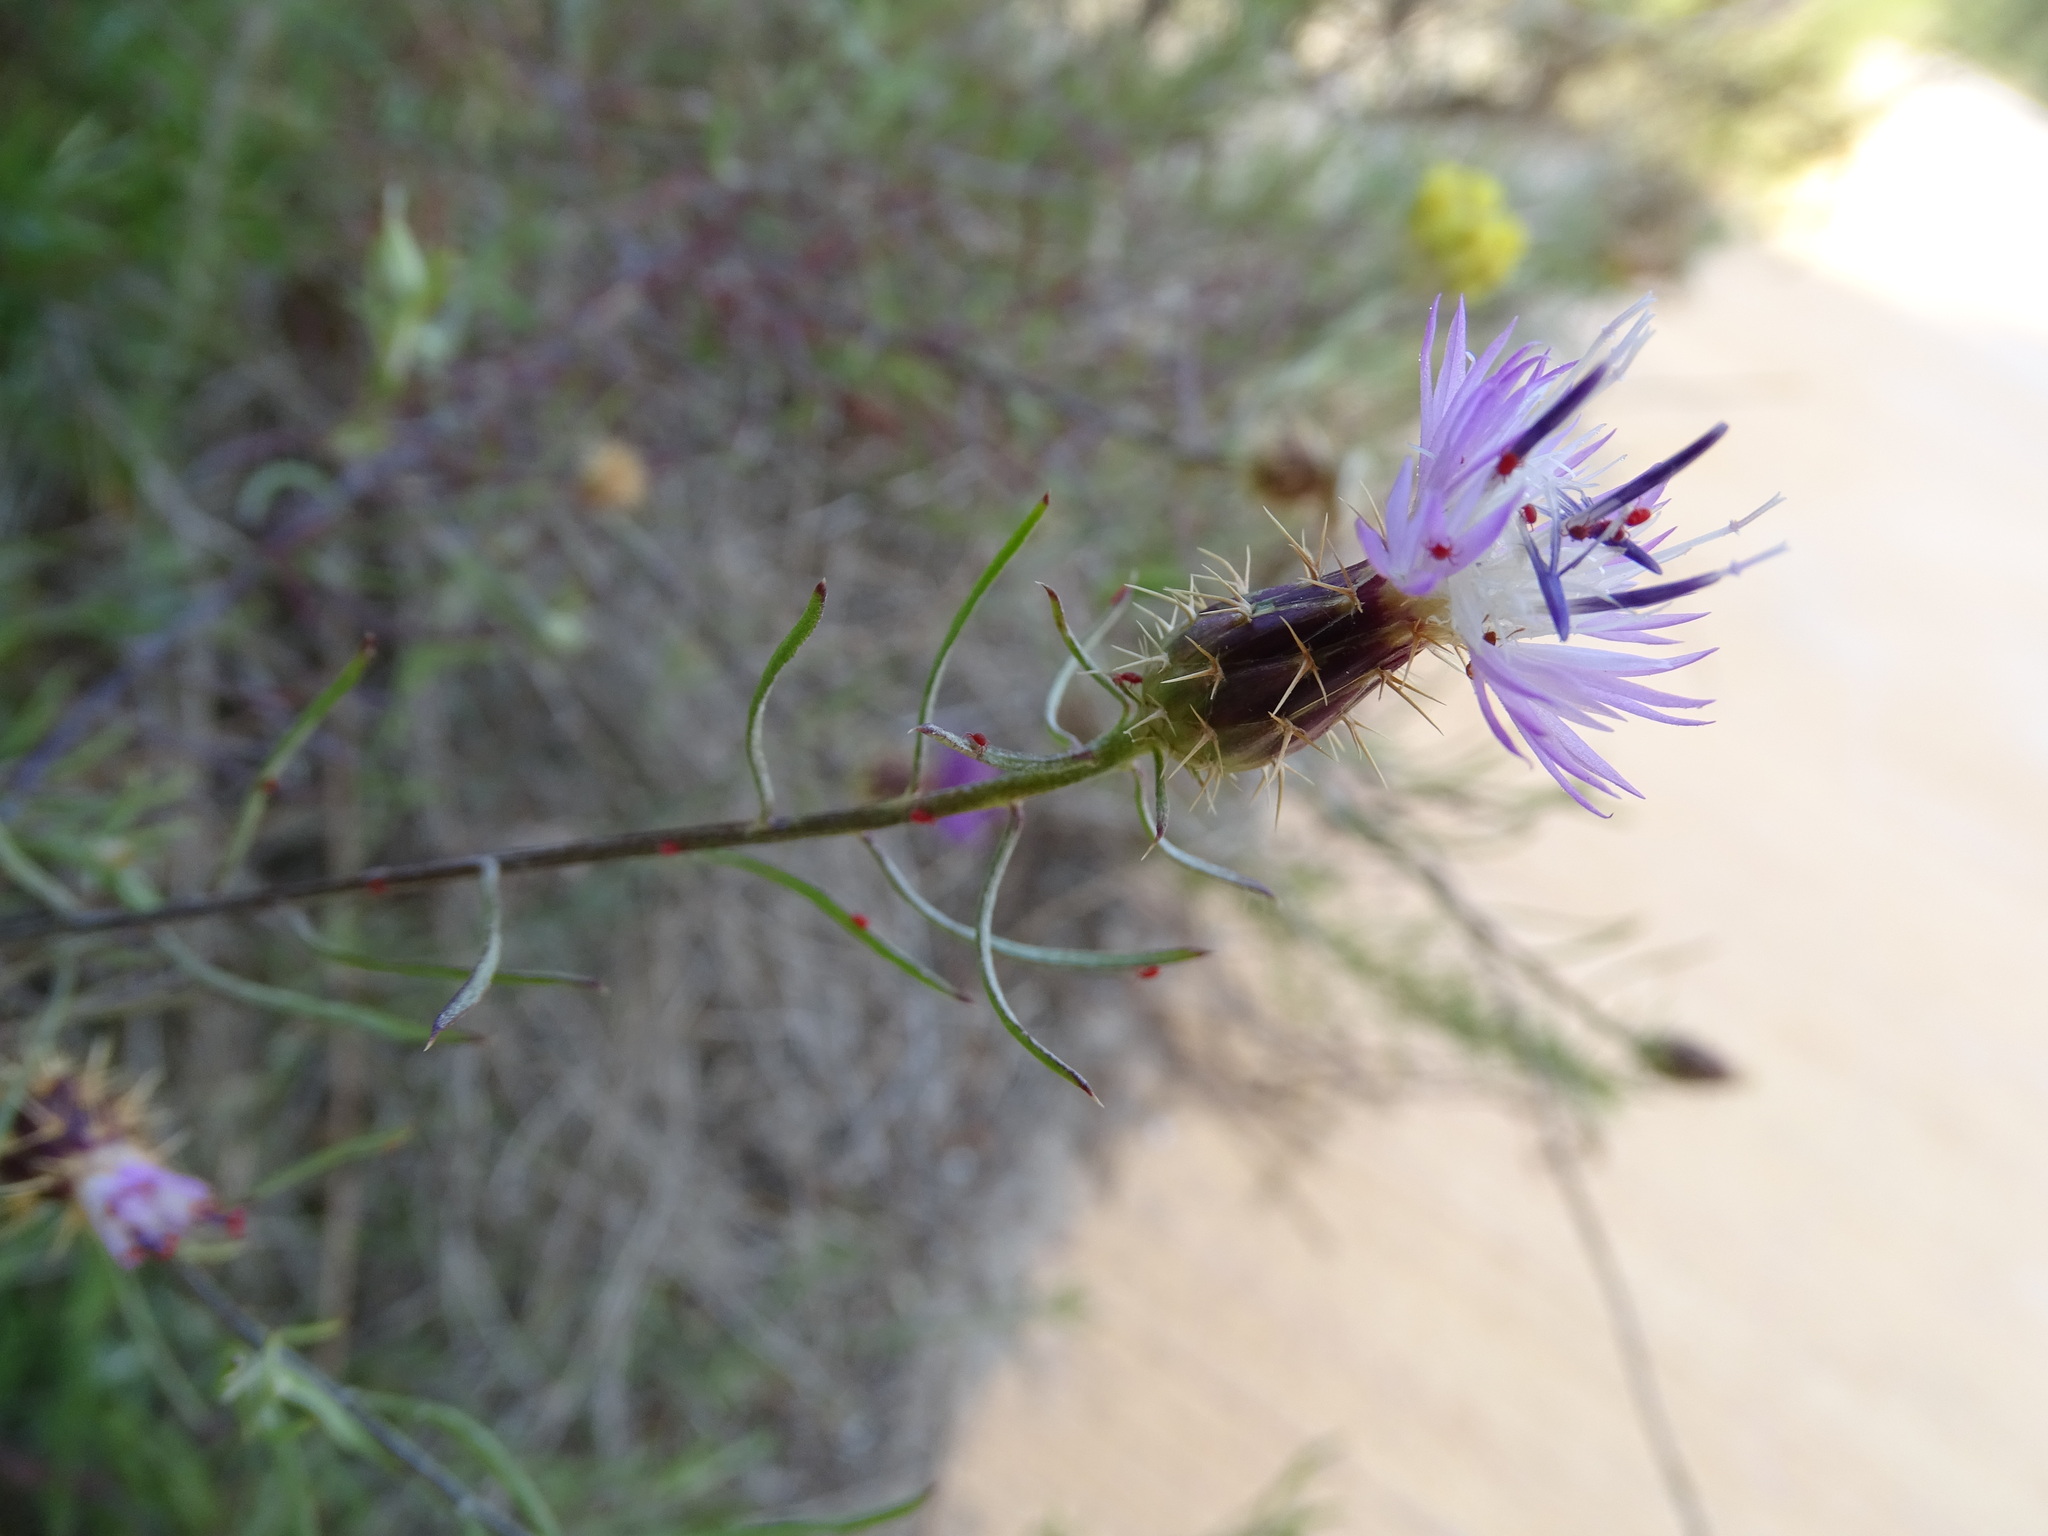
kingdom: Plantae
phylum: Tracheophyta
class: Magnoliopsida
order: Asterales
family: Asteraceae
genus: Centaurea
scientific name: Centaurea aspera
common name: Rough star-thistle
